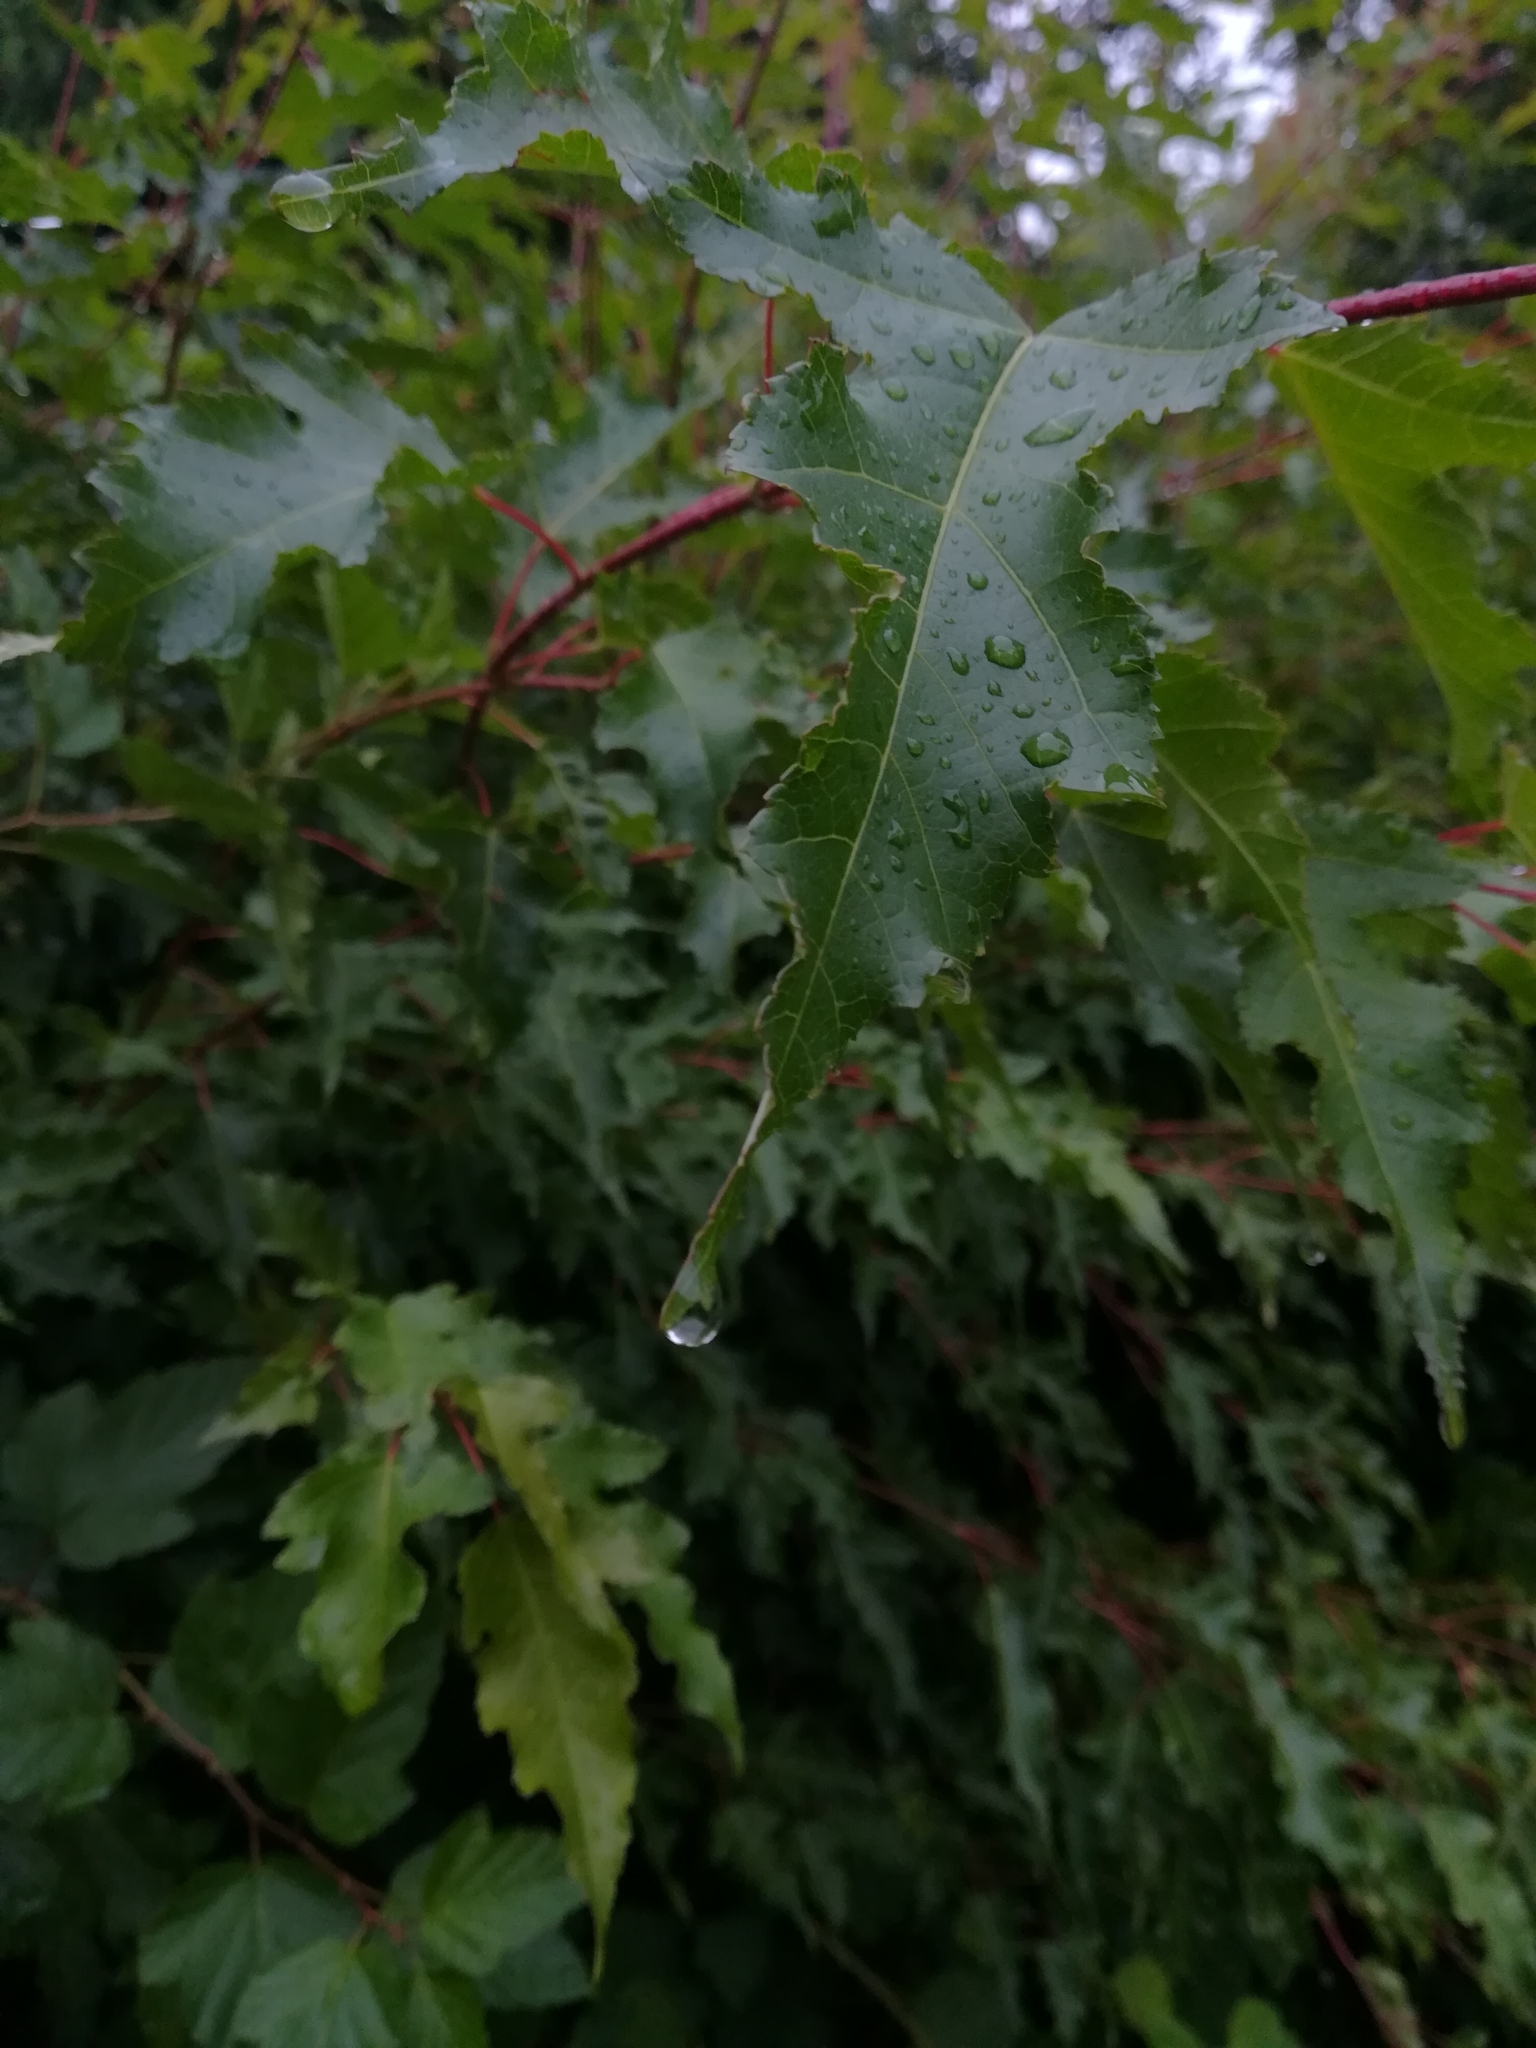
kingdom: Plantae
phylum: Tracheophyta
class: Magnoliopsida
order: Sapindales
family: Sapindaceae
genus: Acer
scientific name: Acer tataricum
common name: Tartar maple
